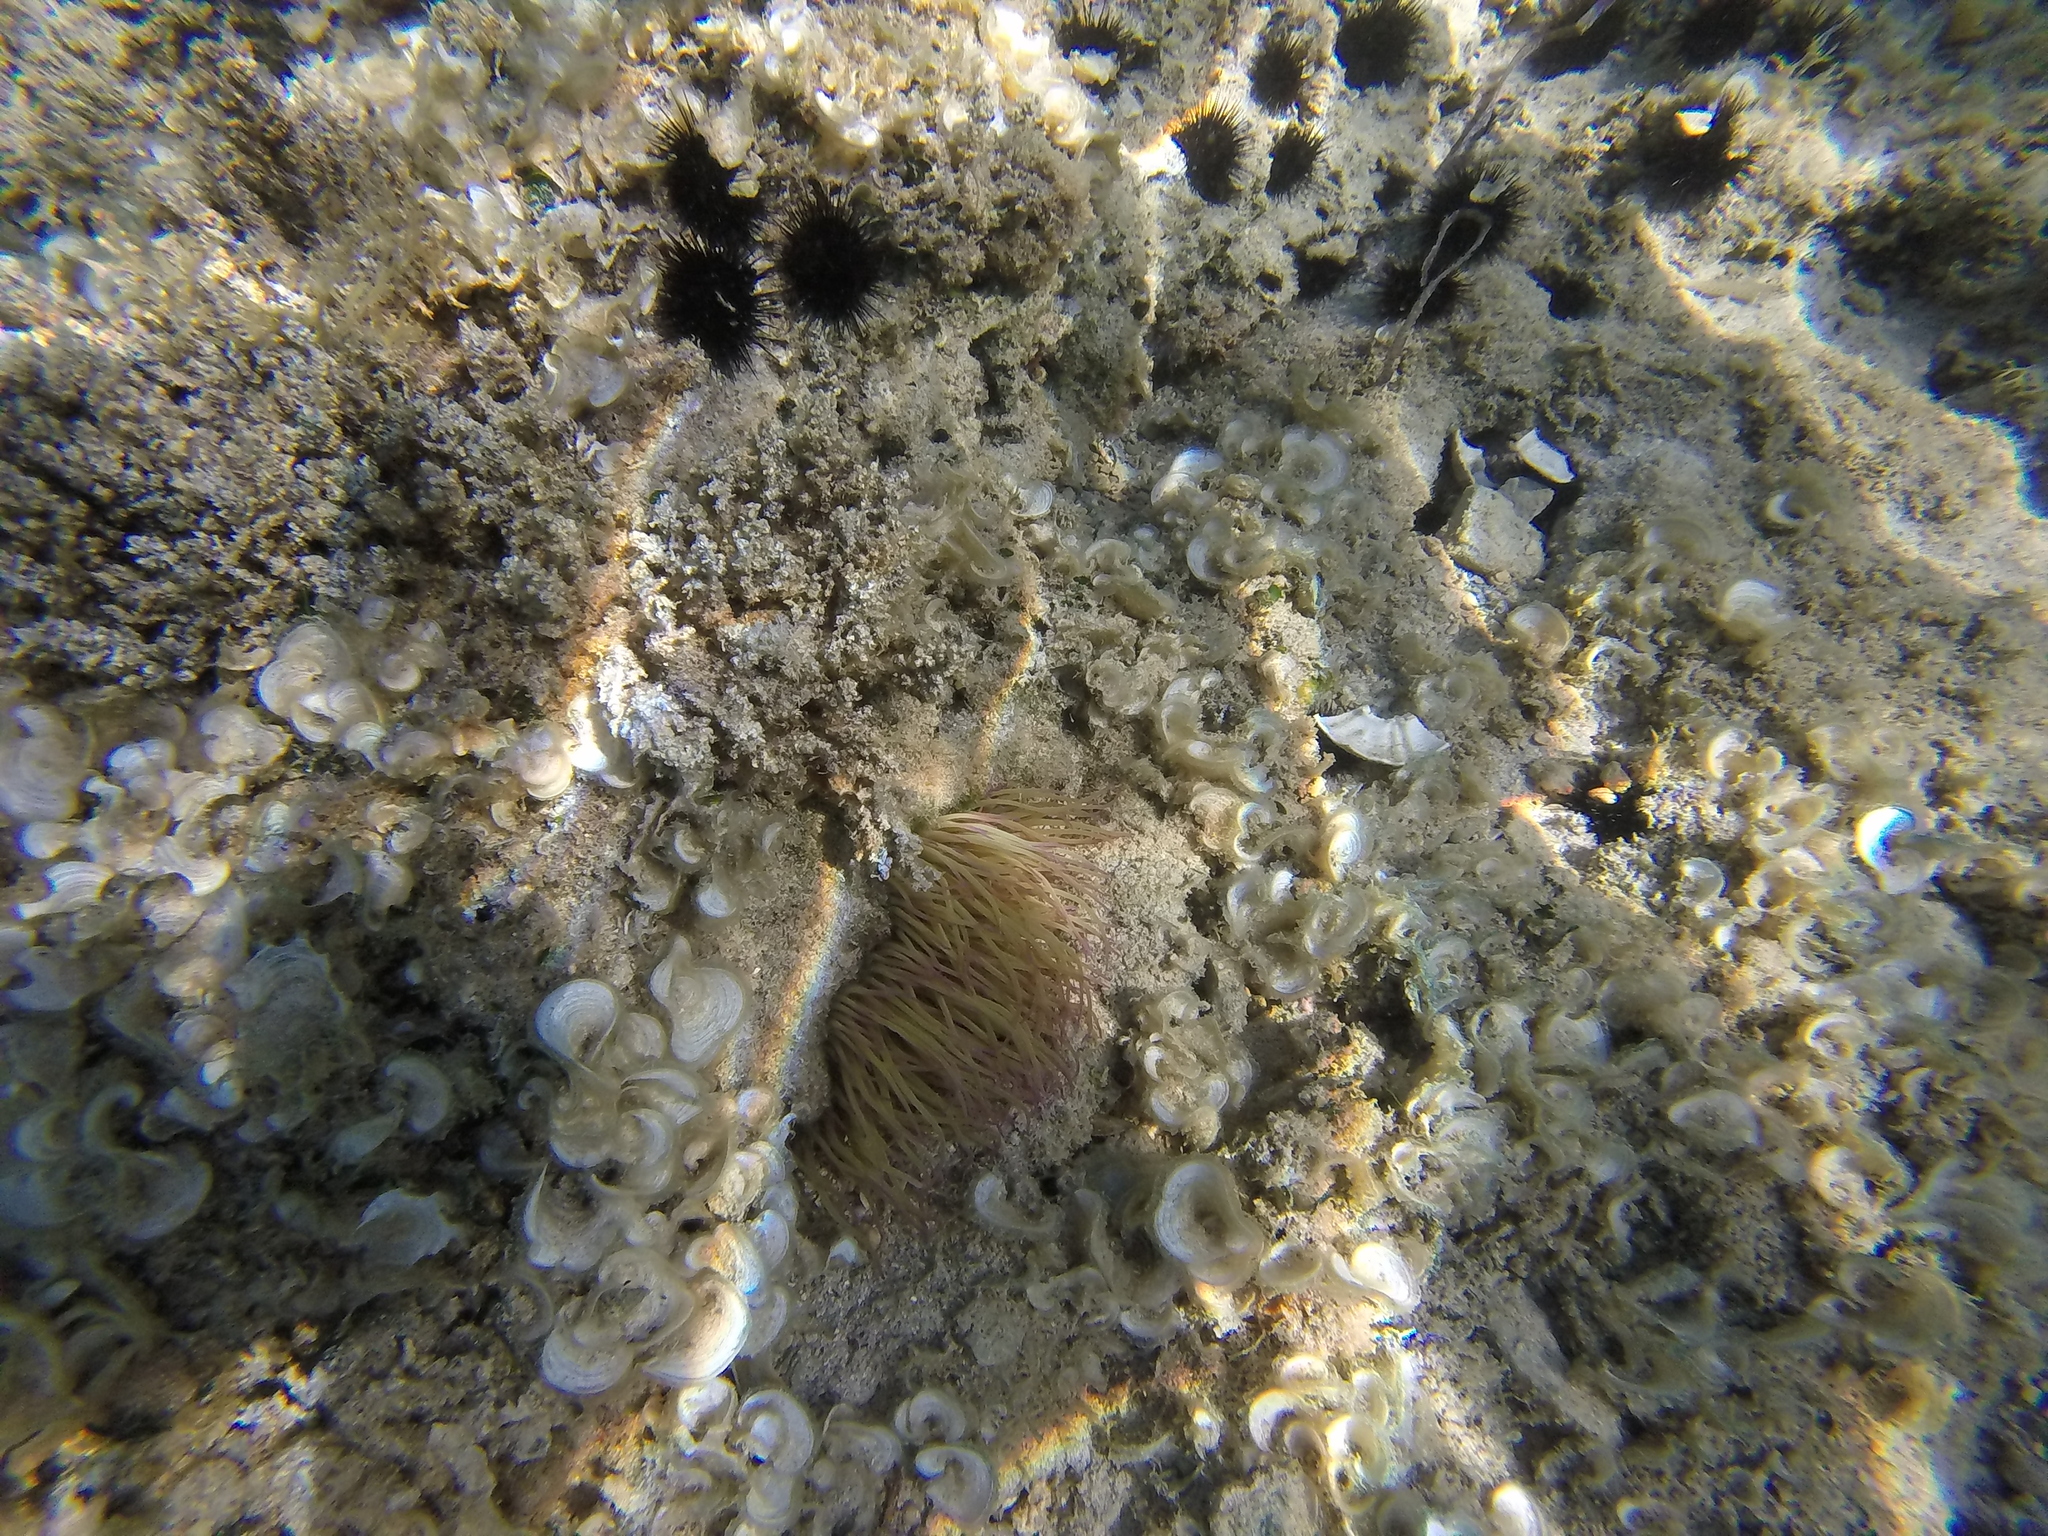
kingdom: Animalia
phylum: Cnidaria
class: Anthozoa
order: Actiniaria
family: Actiniidae
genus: Anemonia
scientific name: Anemonia viridis
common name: Snakelocks anemone
